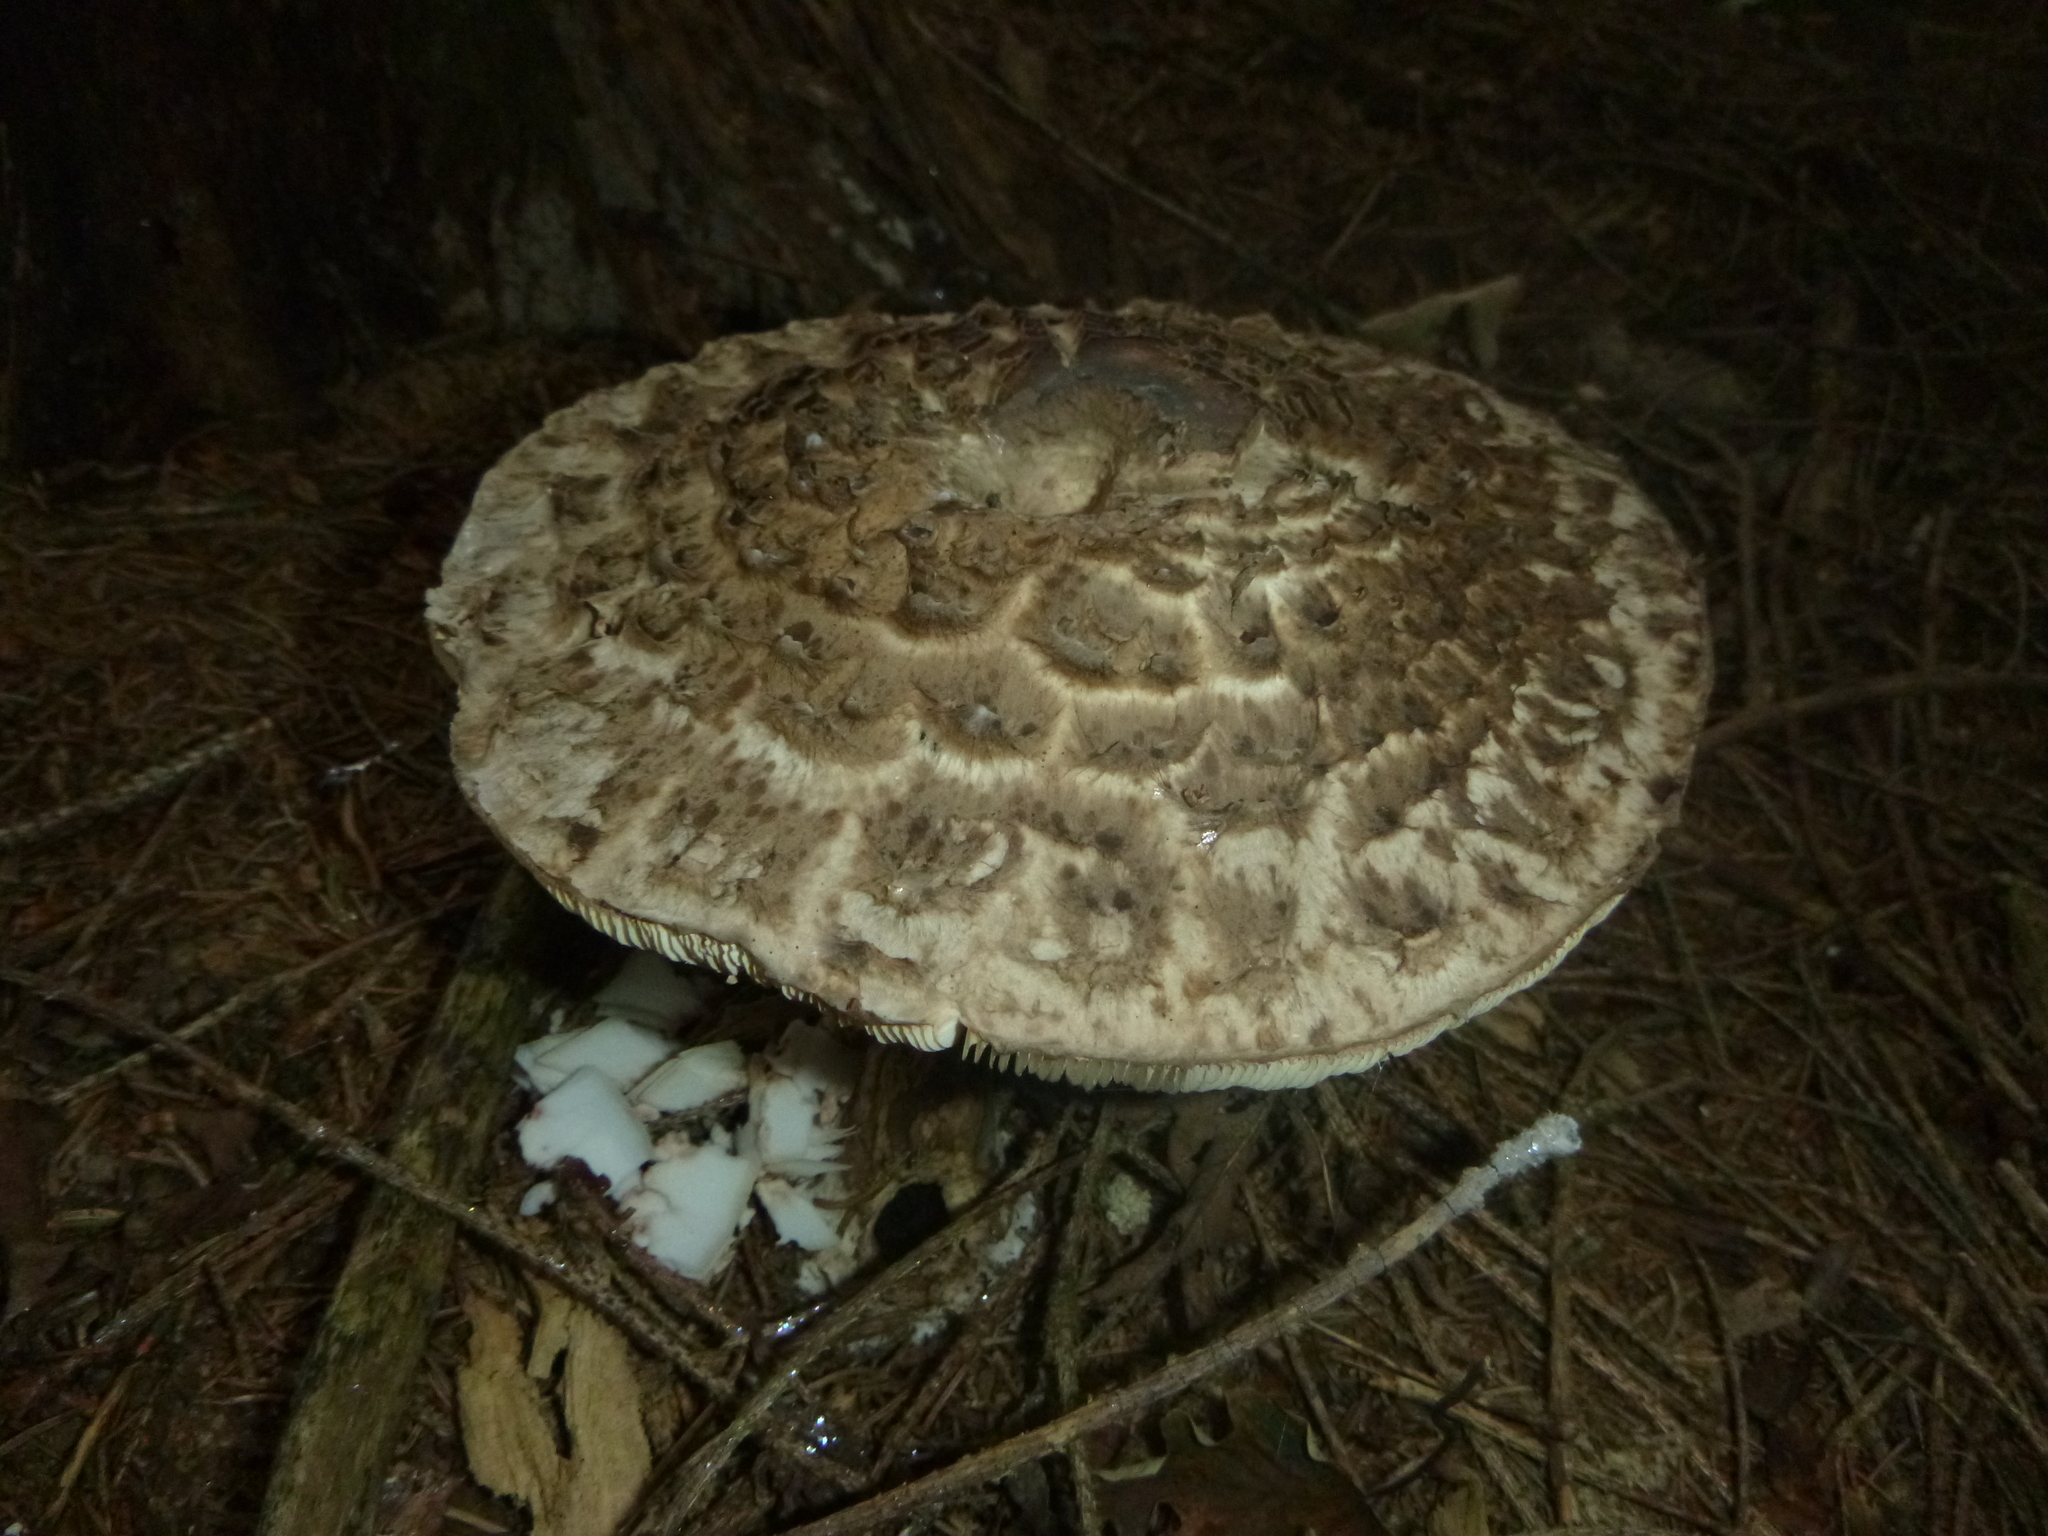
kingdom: Fungi
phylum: Basidiomycota
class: Agaricomycetes
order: Agaricales
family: Agaricaceae
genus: Chlorophyllum
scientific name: Chlorophyllum olivieri
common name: Conifer parasol
